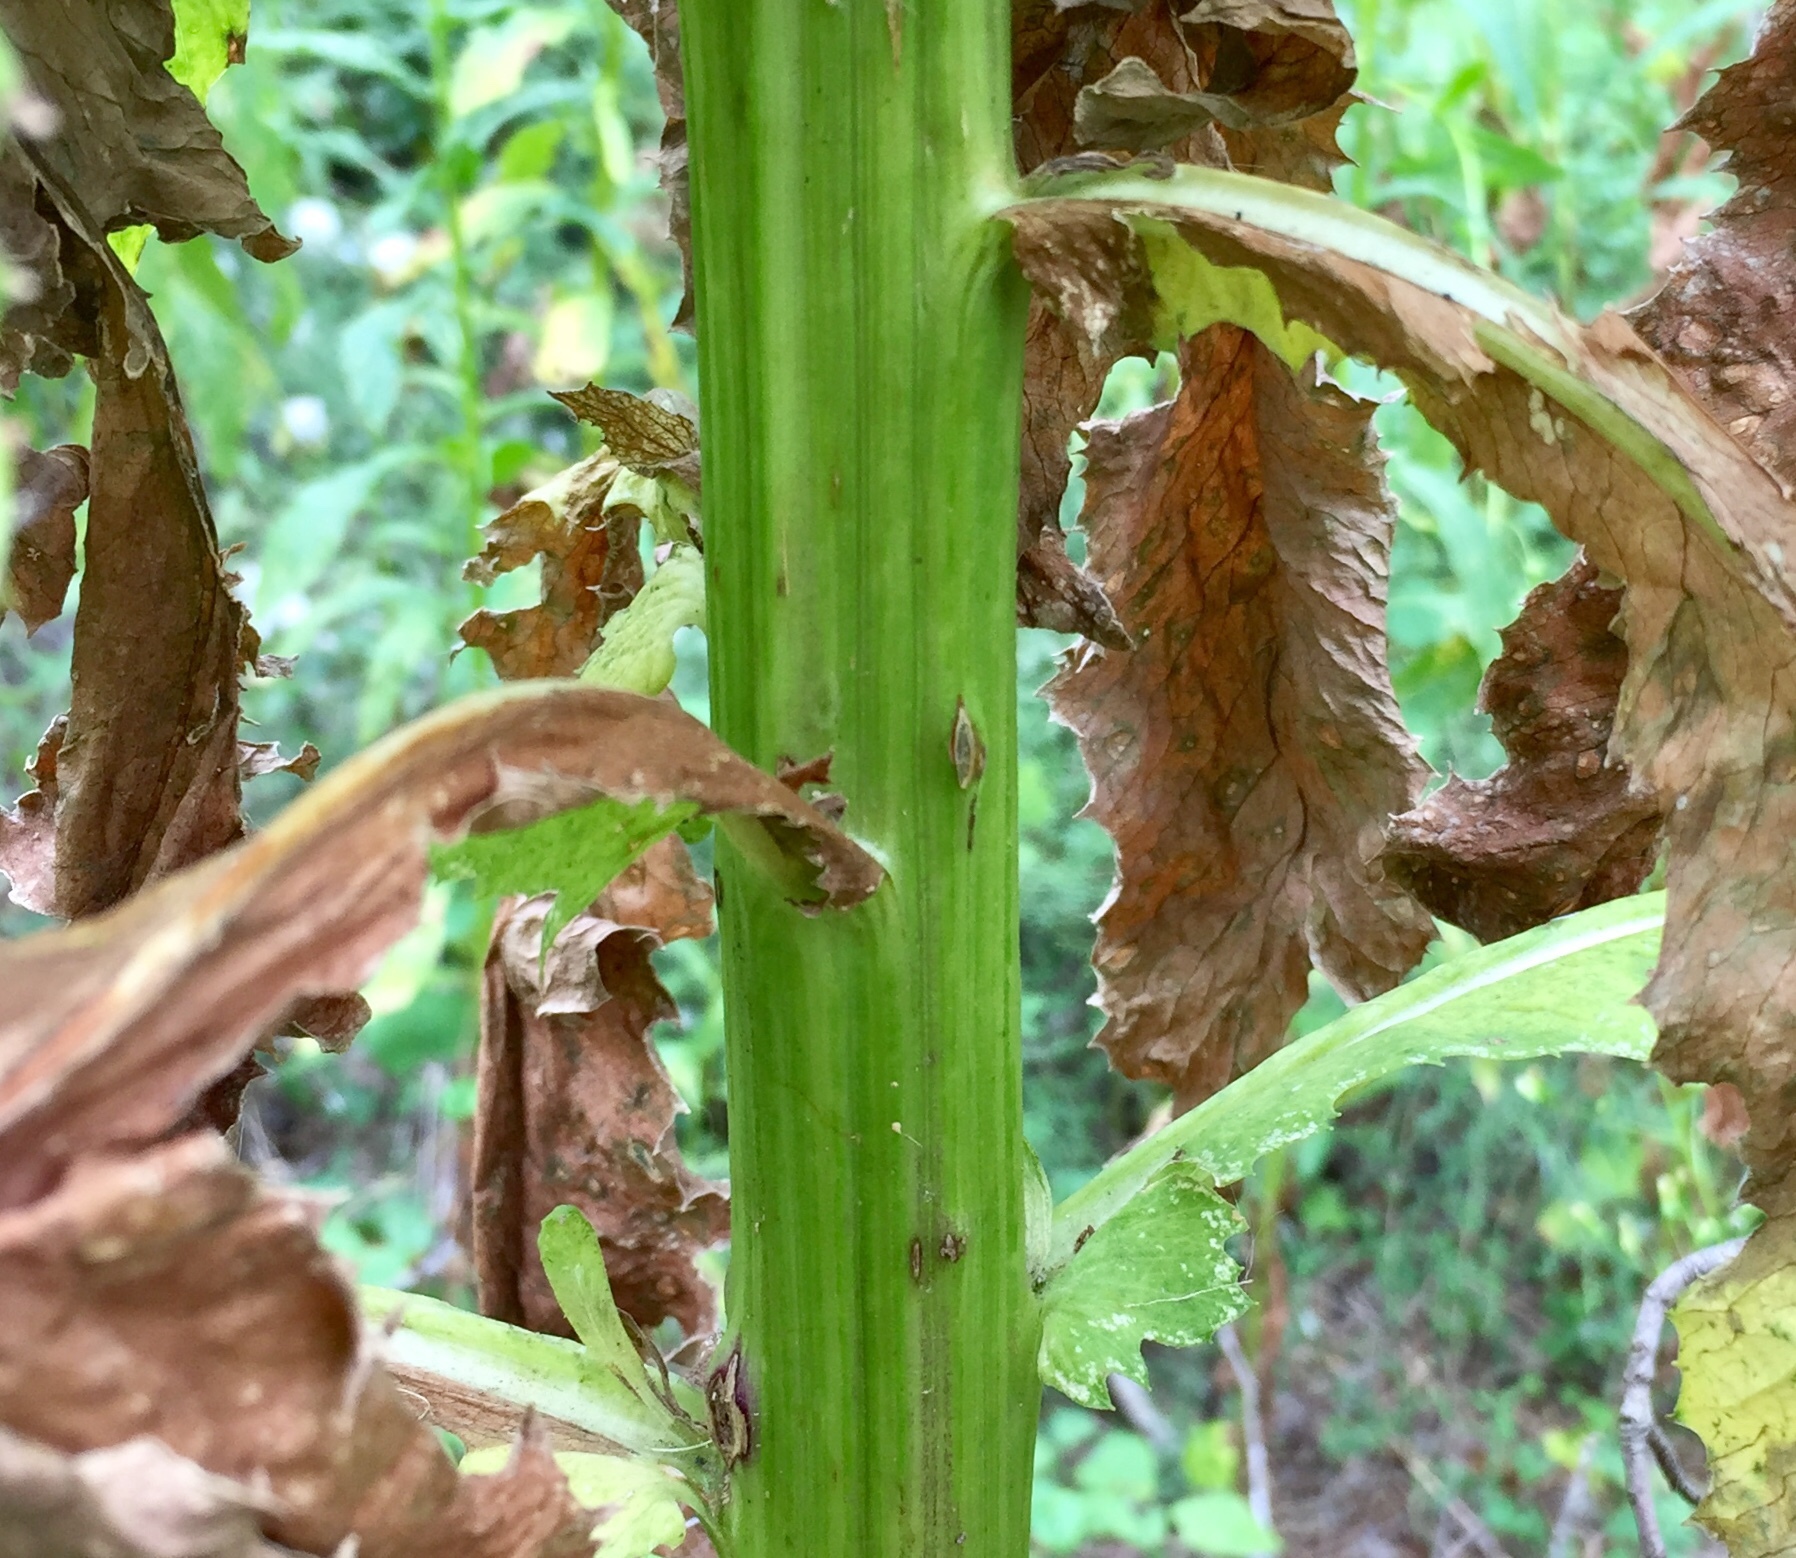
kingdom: Plantae
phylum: Tracheophyta
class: Magnoliopsida
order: Asterales
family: Asteraceae
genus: Erechtites
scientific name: Erechtites hieraciifolius
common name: American burnweed
